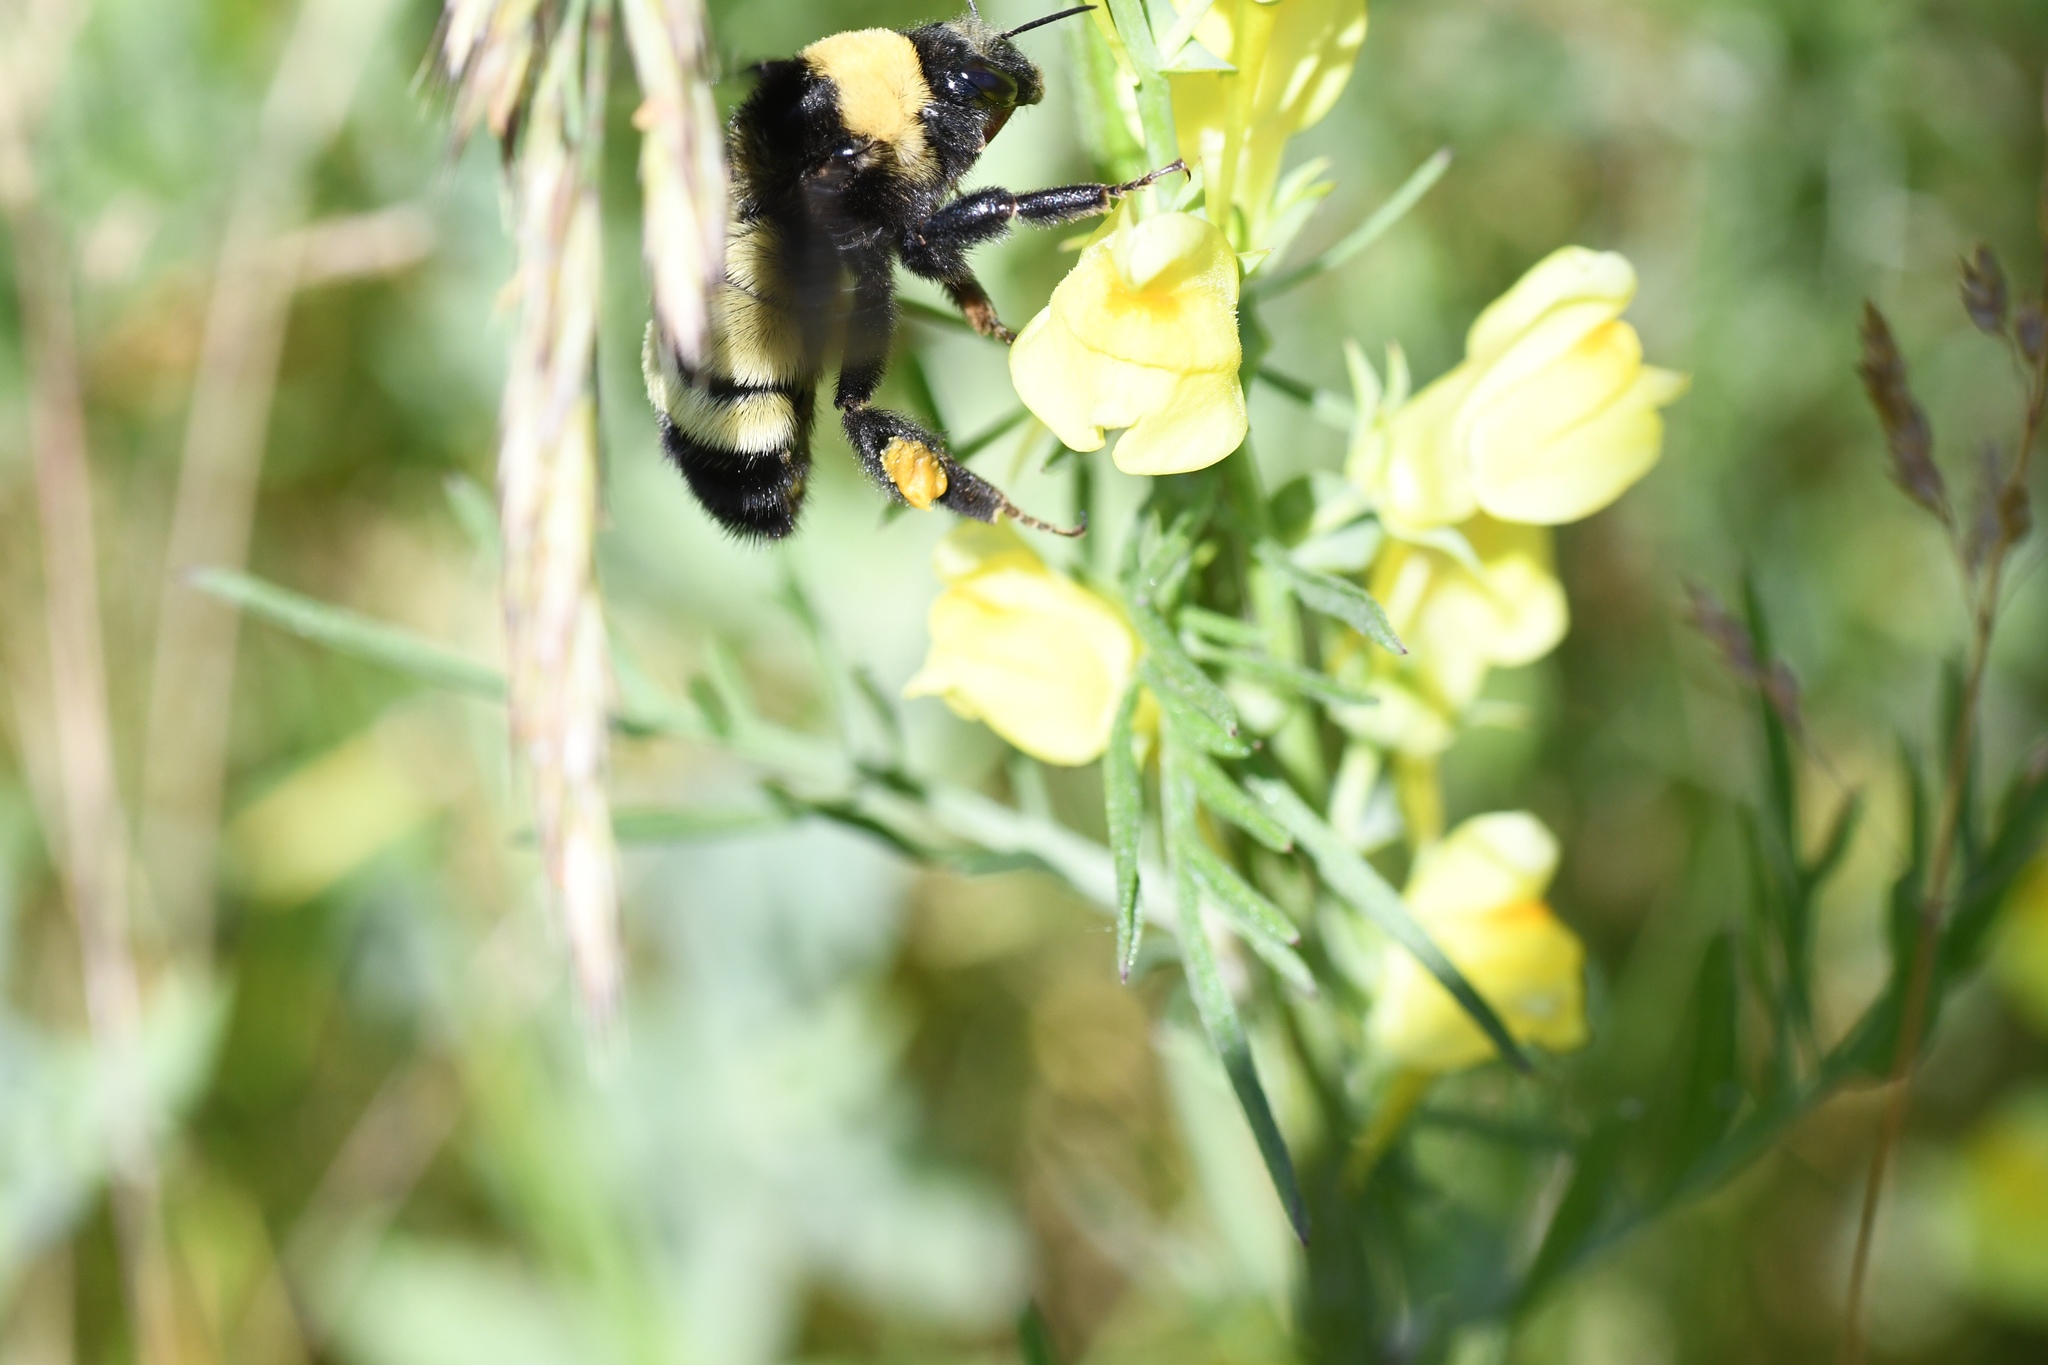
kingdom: Animalia
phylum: Arthropoda
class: Insecta
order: Hymenoptera
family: Apidae
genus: Bombus
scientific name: Bombus pensylvanicus
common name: Bumble bee
